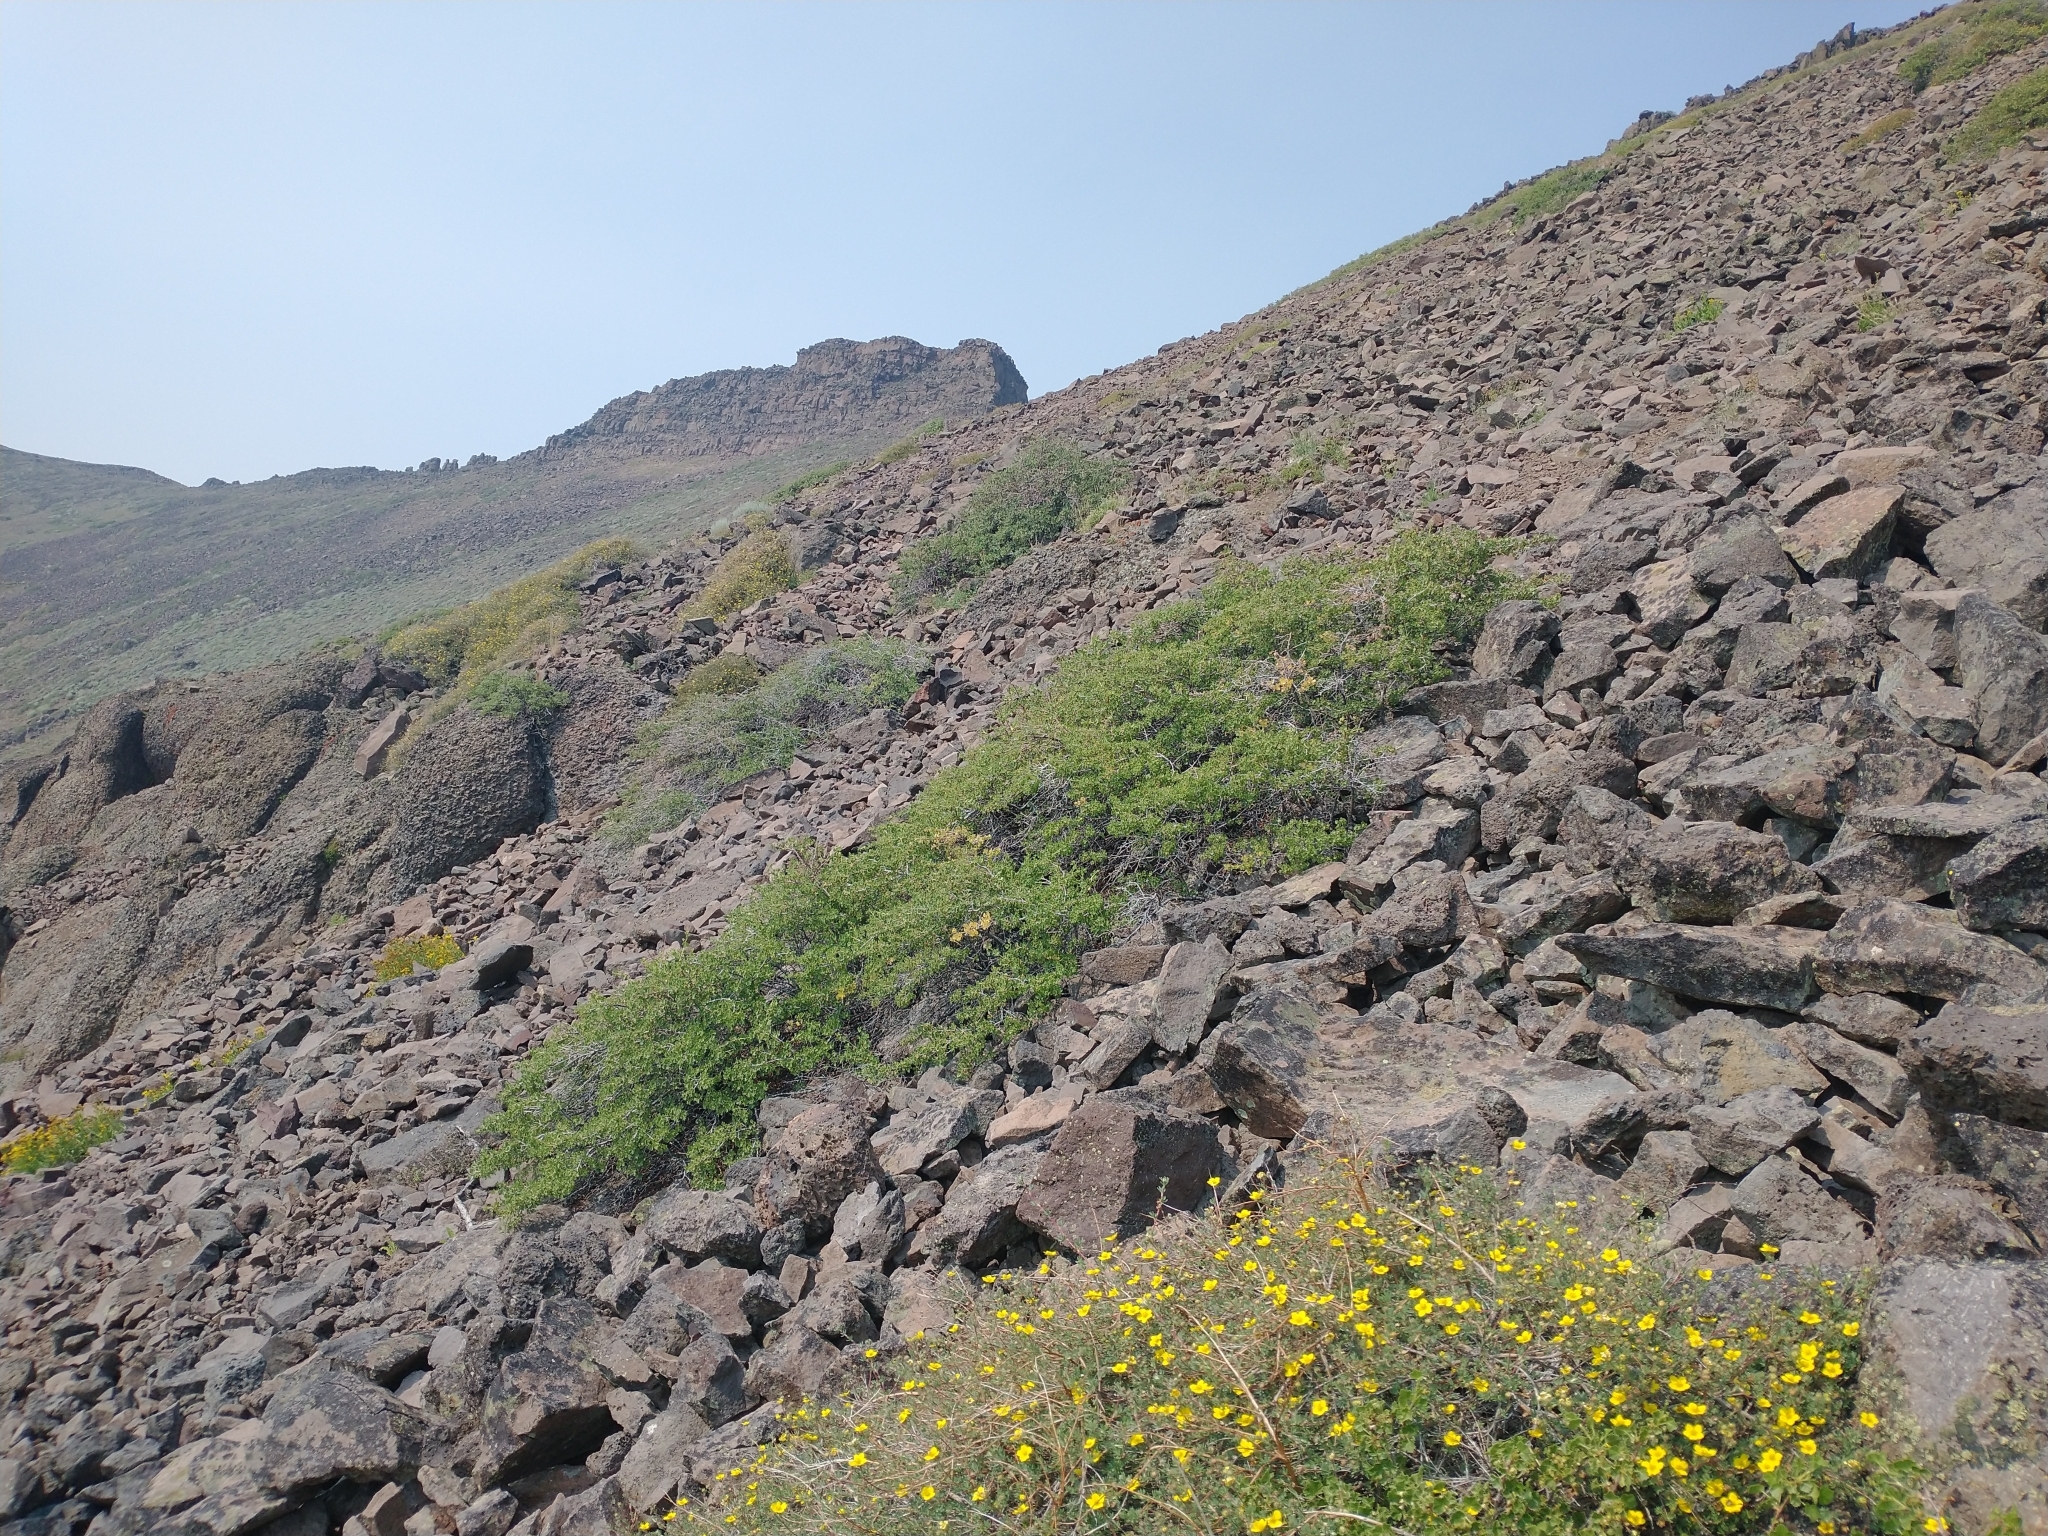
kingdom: Plantae
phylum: Tracheophyta
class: Magnoliopsida
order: Saxifragales
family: Grossulariaceae
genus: Ribes
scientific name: Ribes cereum
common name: Wax currant
